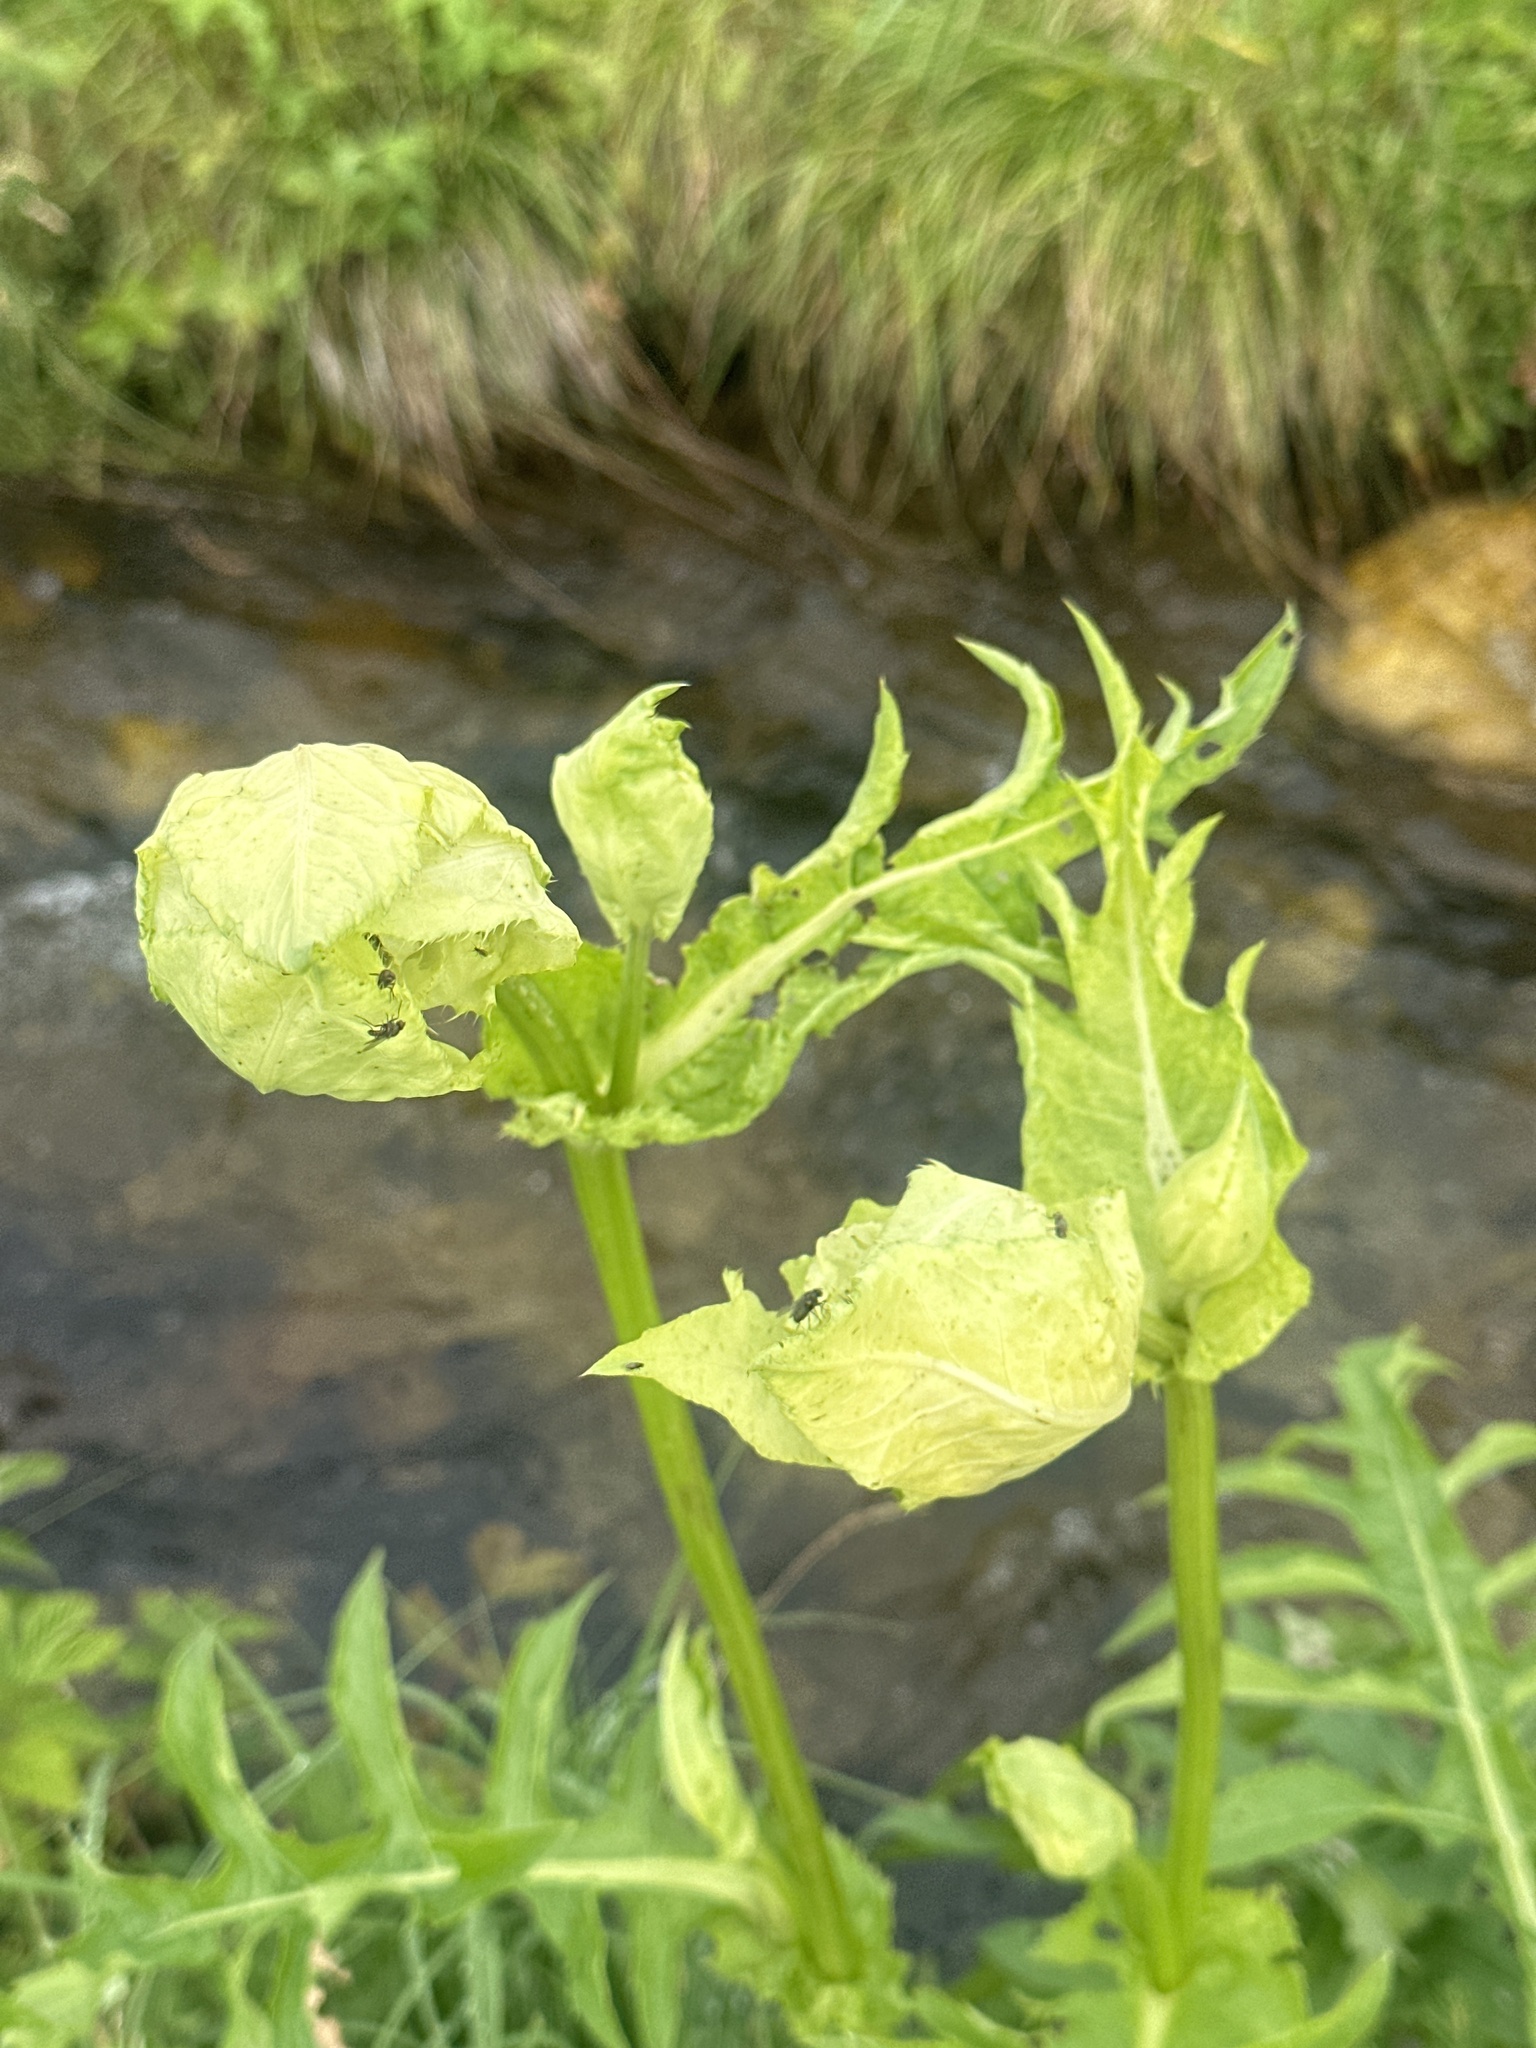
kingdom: Plantae
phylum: Tracheophyta
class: Magnoliopsida
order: Asterales
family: Asteraceae
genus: Cirsium
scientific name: Cirsium oleraceum
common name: Cabbage thistle
